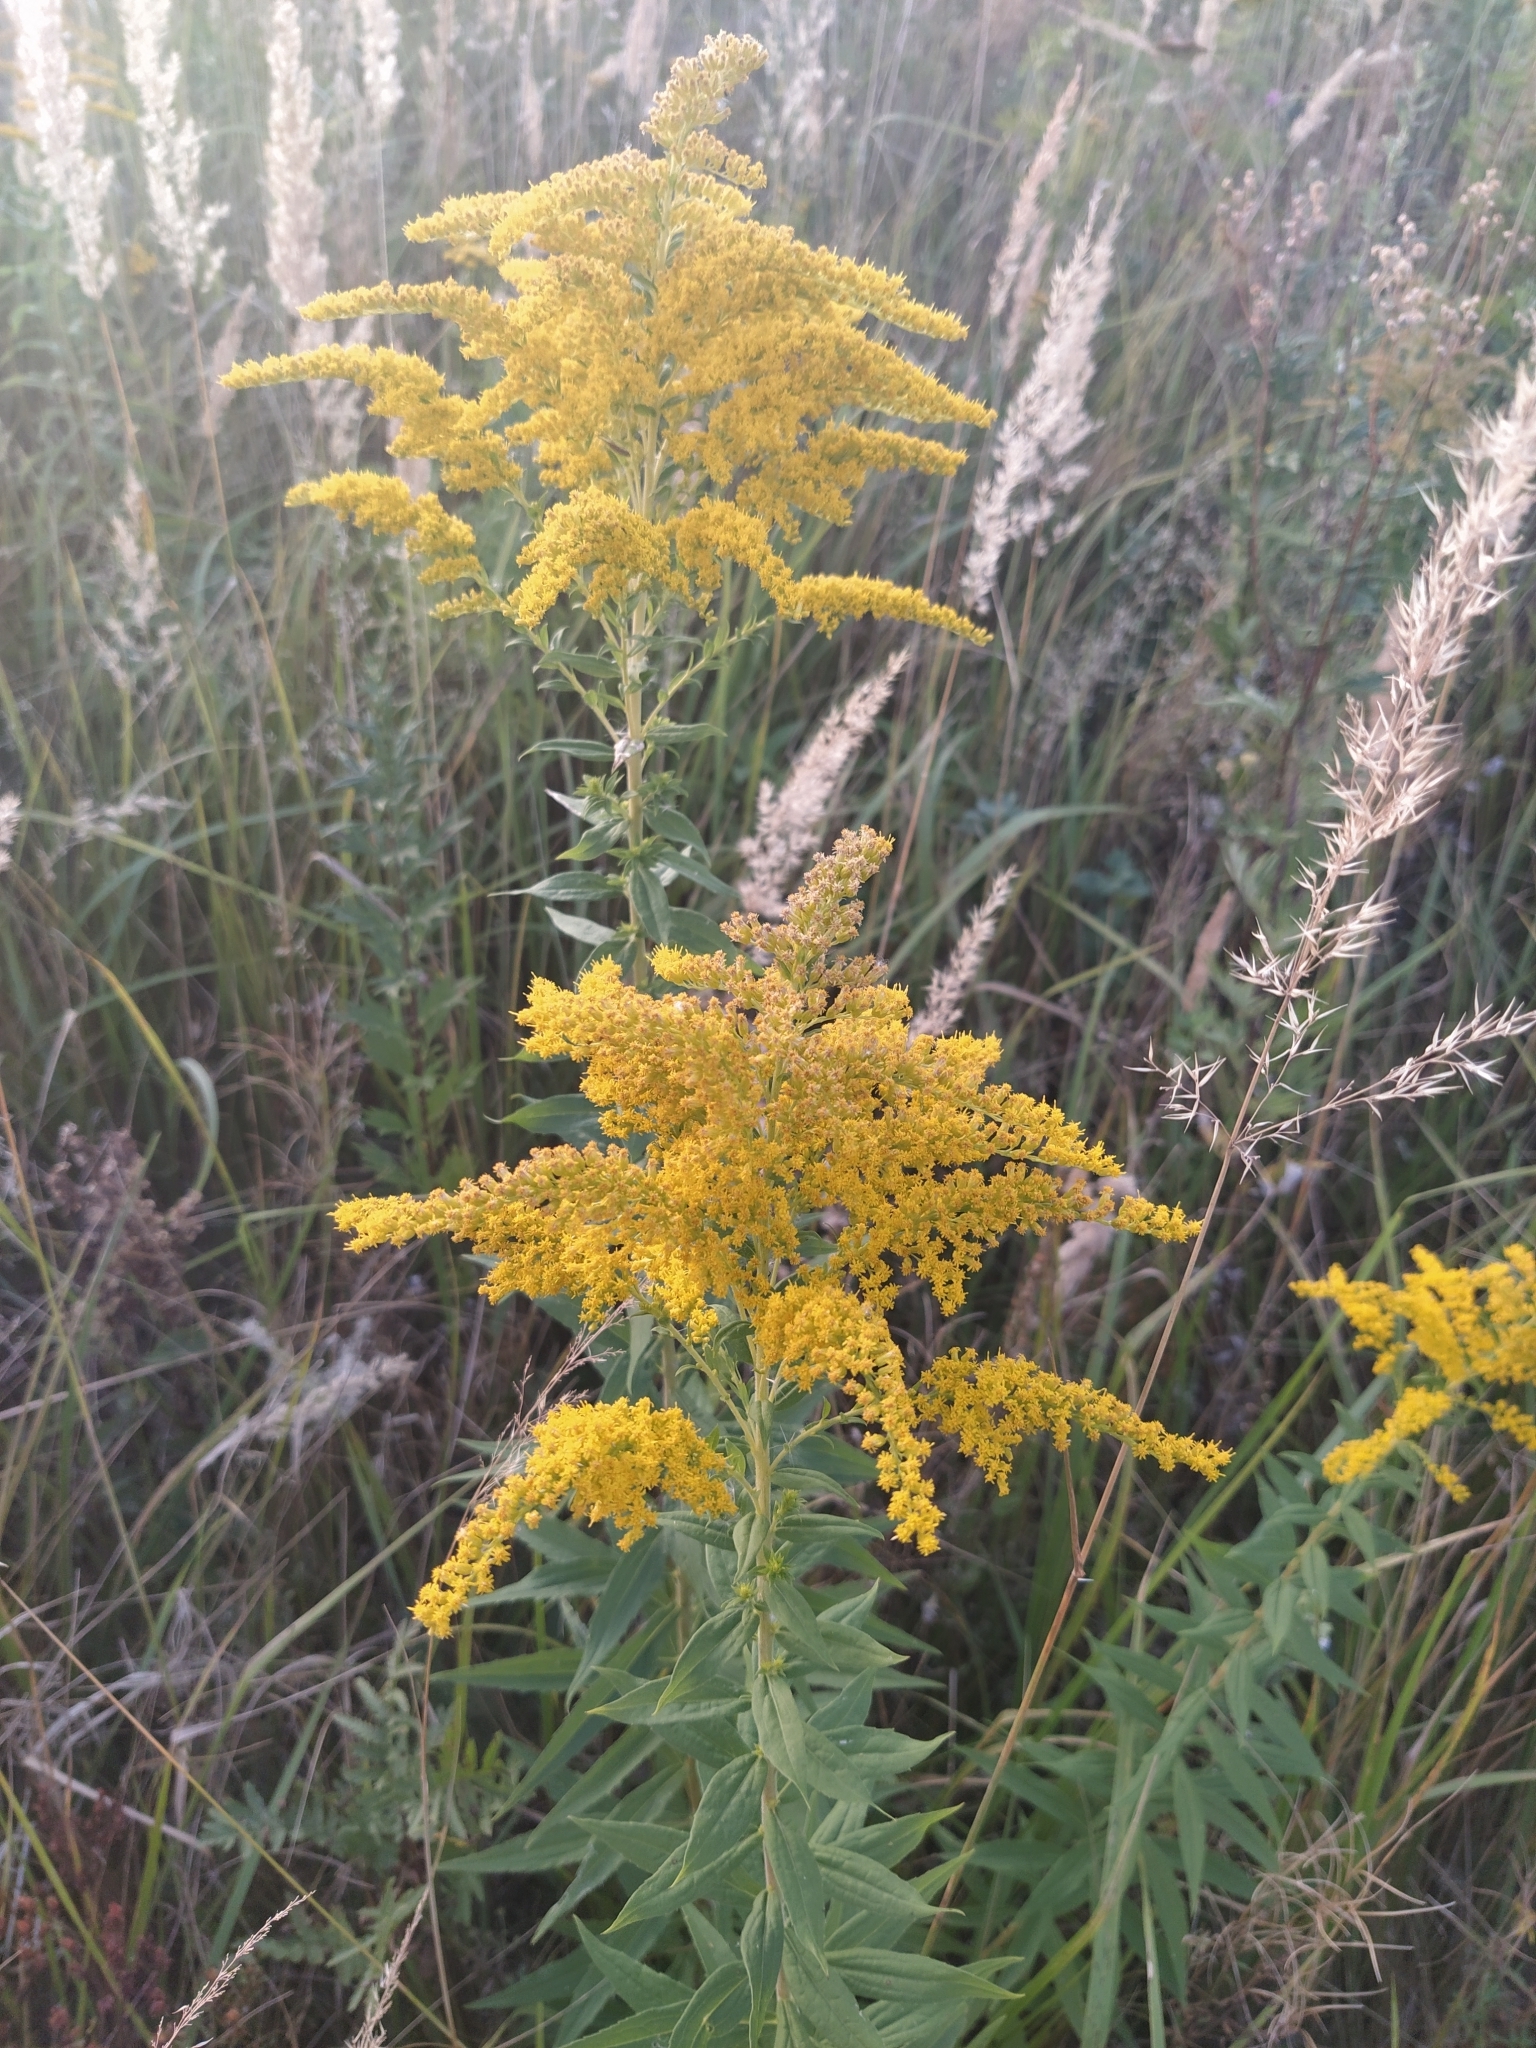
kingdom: Plantae
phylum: Tracheophyta
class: Magnoliopsida
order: Asterales
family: Asteraceae
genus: Solidago
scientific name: Solidago canadensis
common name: Canada goldenrod
